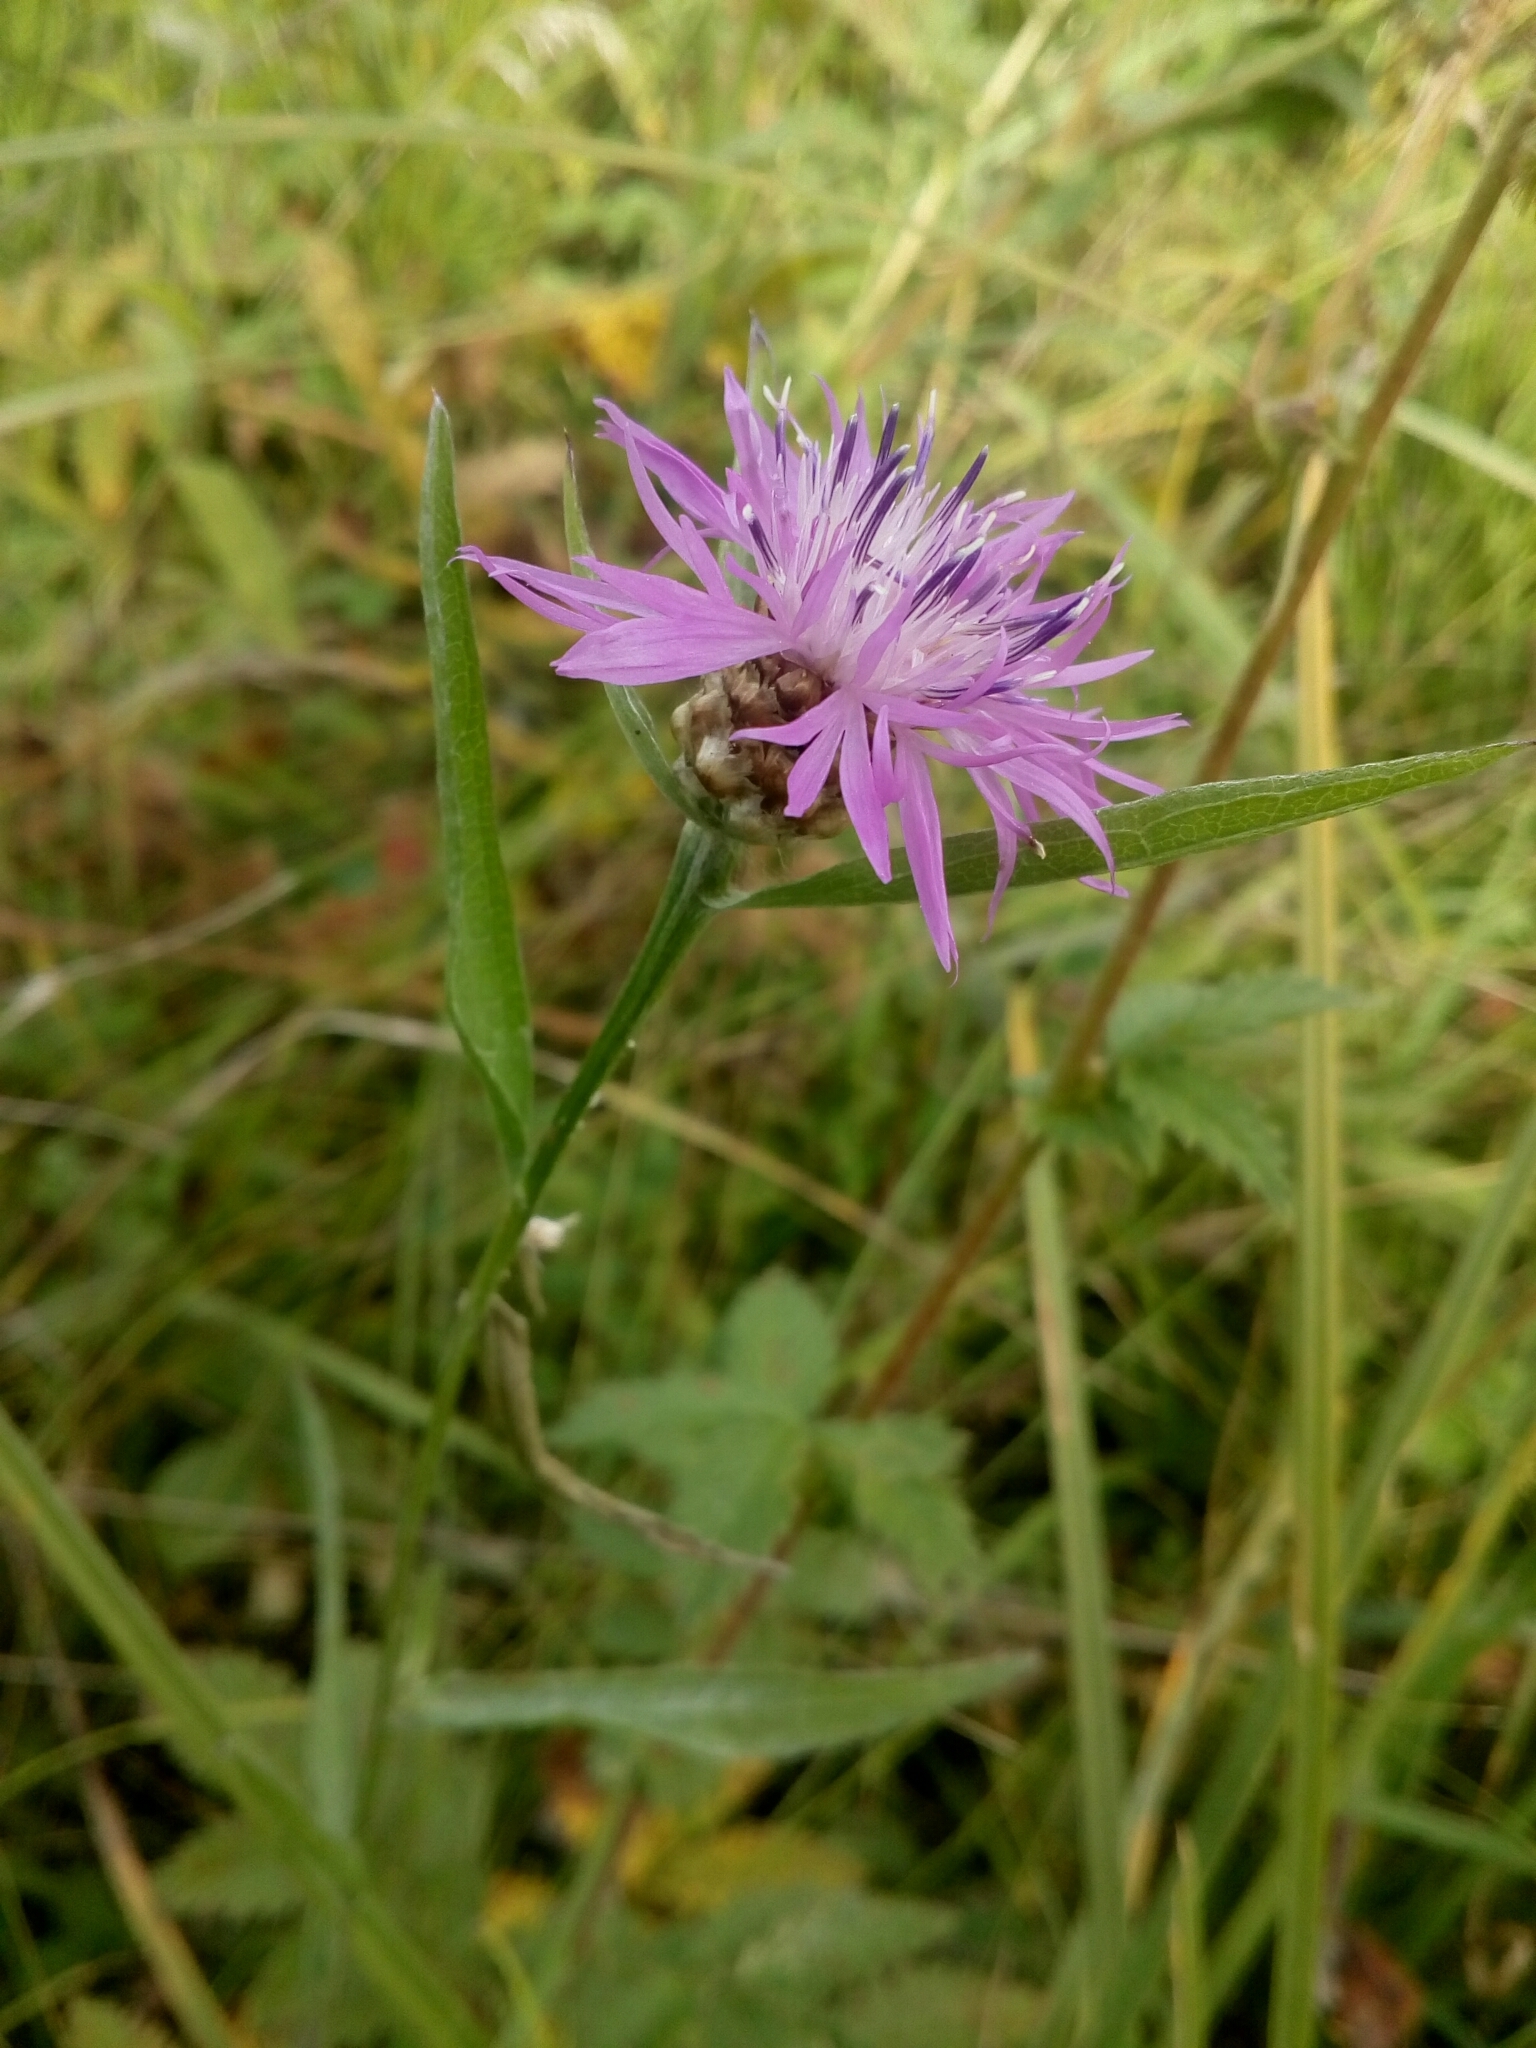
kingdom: Plantae
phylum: Tracheophyta
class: Magnoliopsida
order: Asterales
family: Asteraceae
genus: Centaurea
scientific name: Centaurea jacea
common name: Brown knapweed
